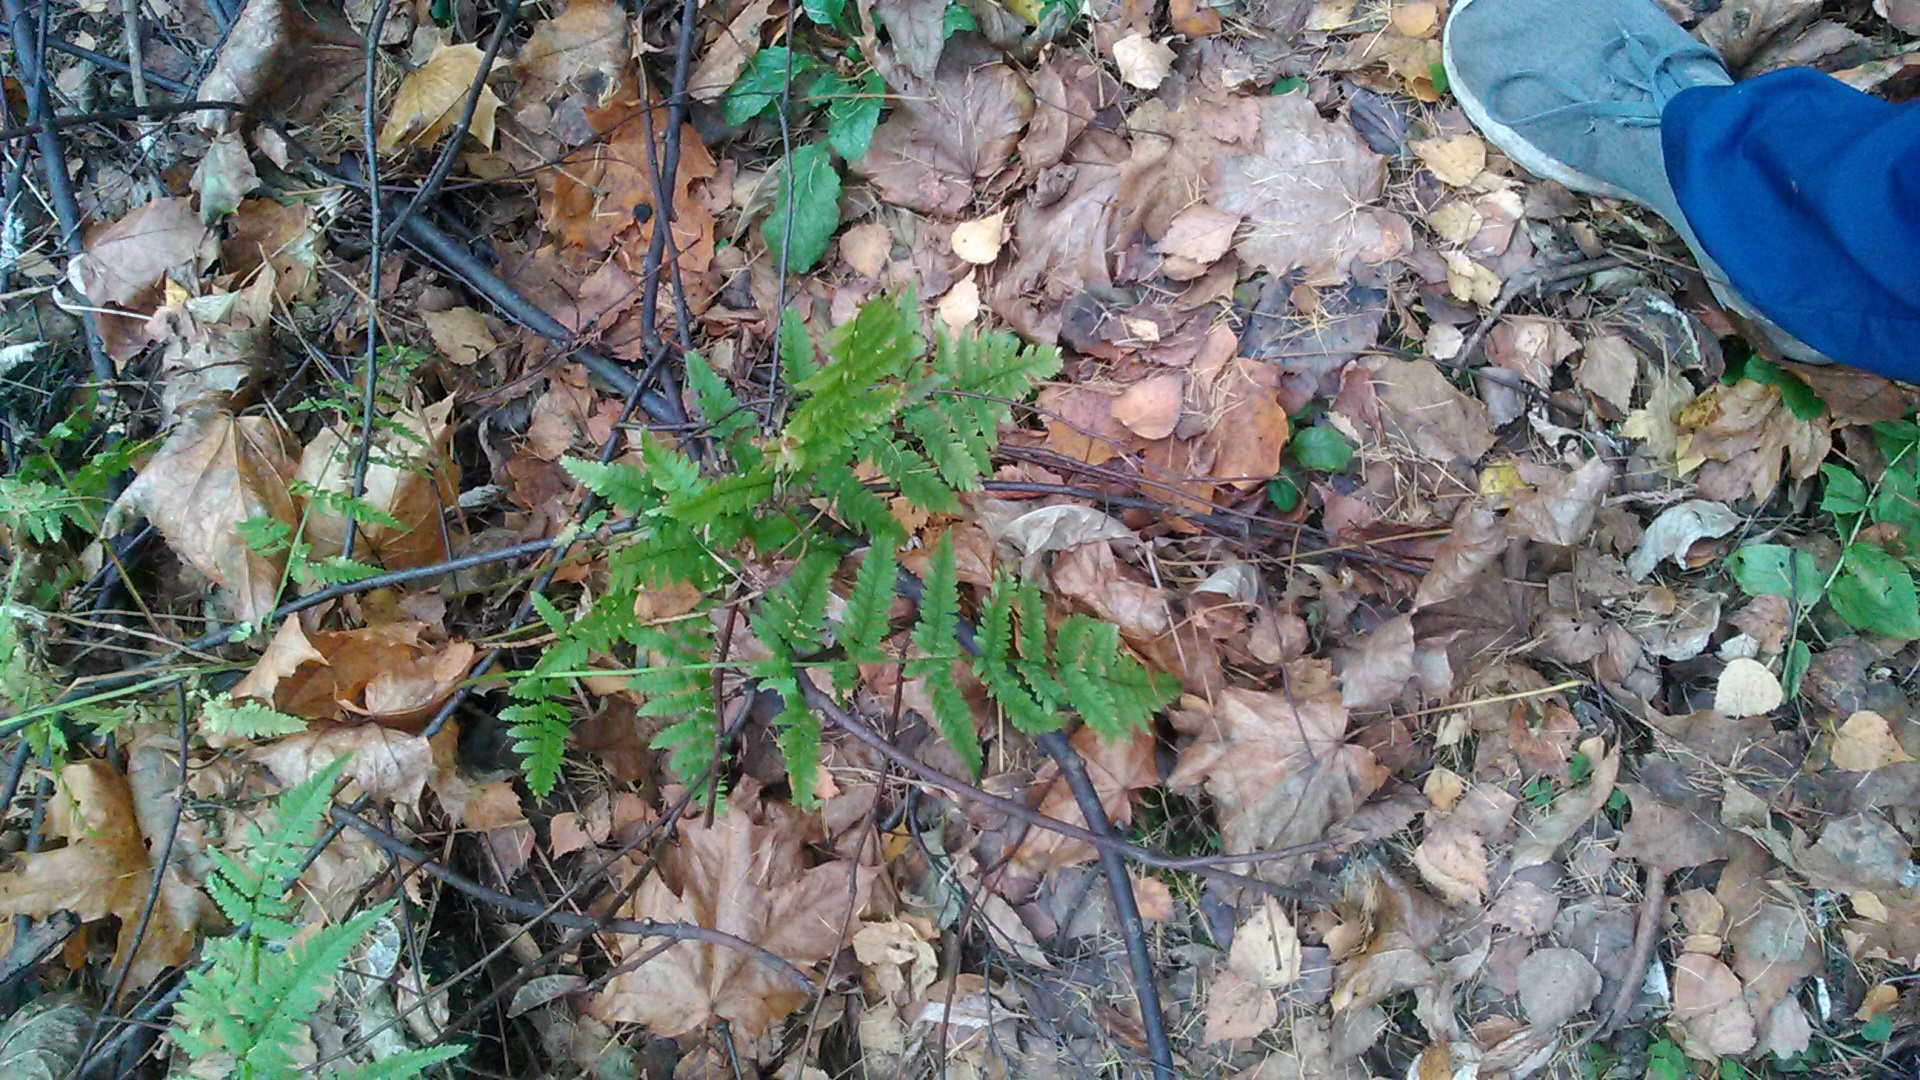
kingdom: Plantae
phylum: Tracheophyta
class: Polypodiopsida
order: Polypodiales
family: Dryopteridaceae
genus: Dryopteris
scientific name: Dryopteris carthusiana
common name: Narrow buckler-fern
